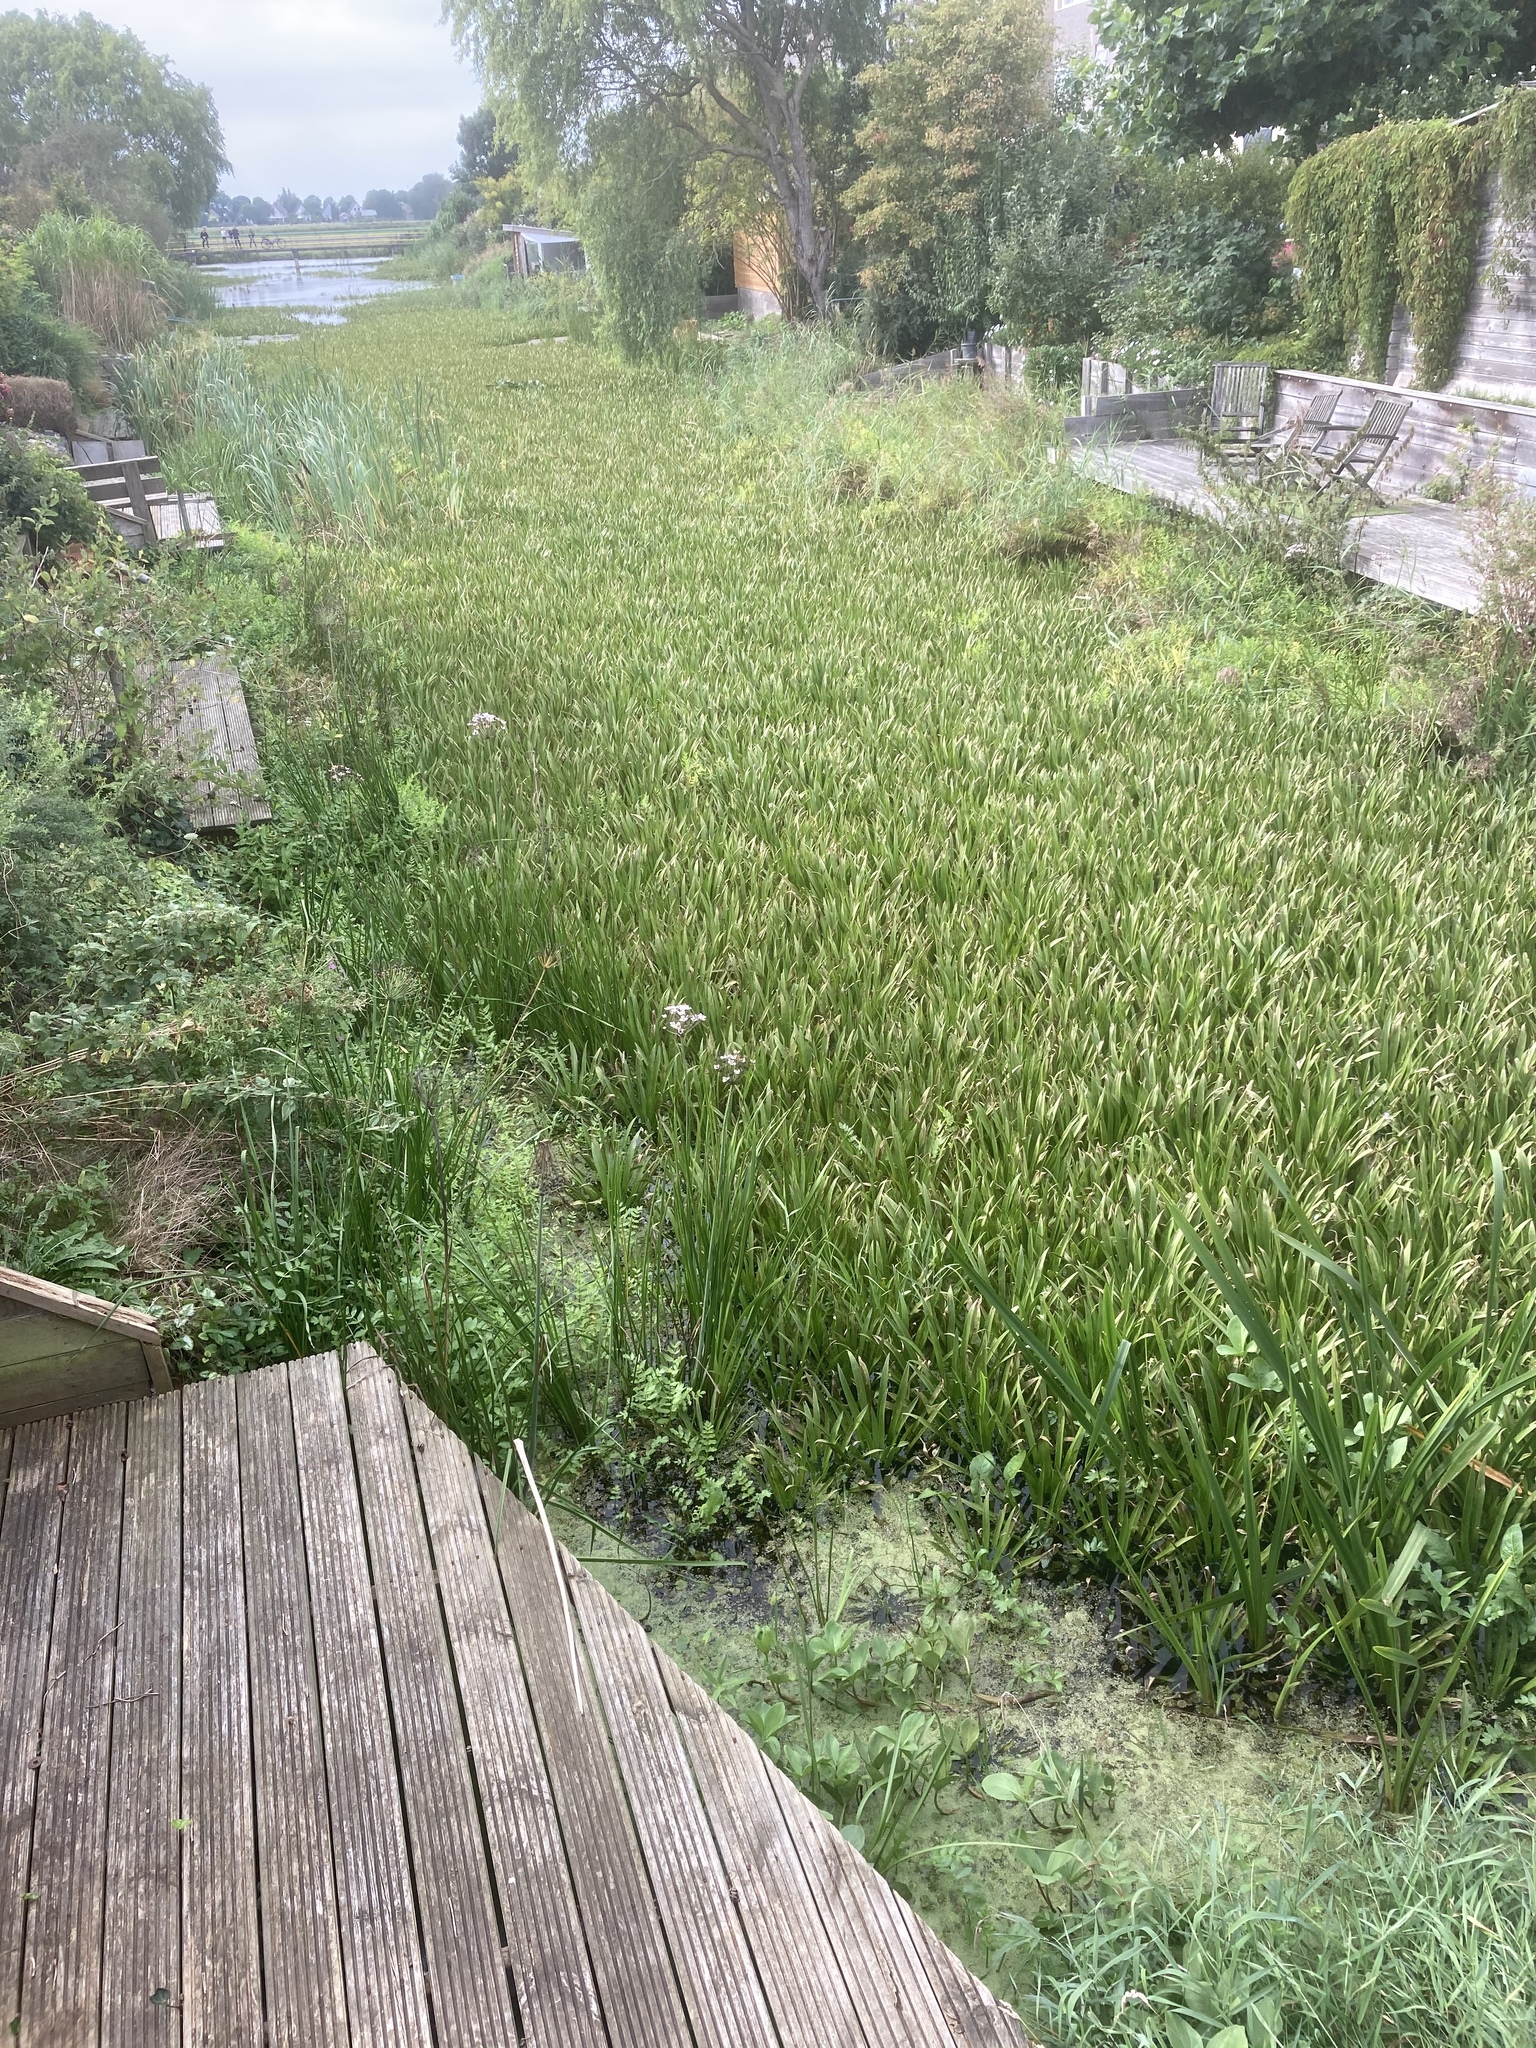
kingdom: Plantae
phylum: Tracheophyta
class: Liliopsida
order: Alismatales
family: Hydrocharitaceae
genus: Stratiotes
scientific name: Stratiotes aloides
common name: Water-soldier
